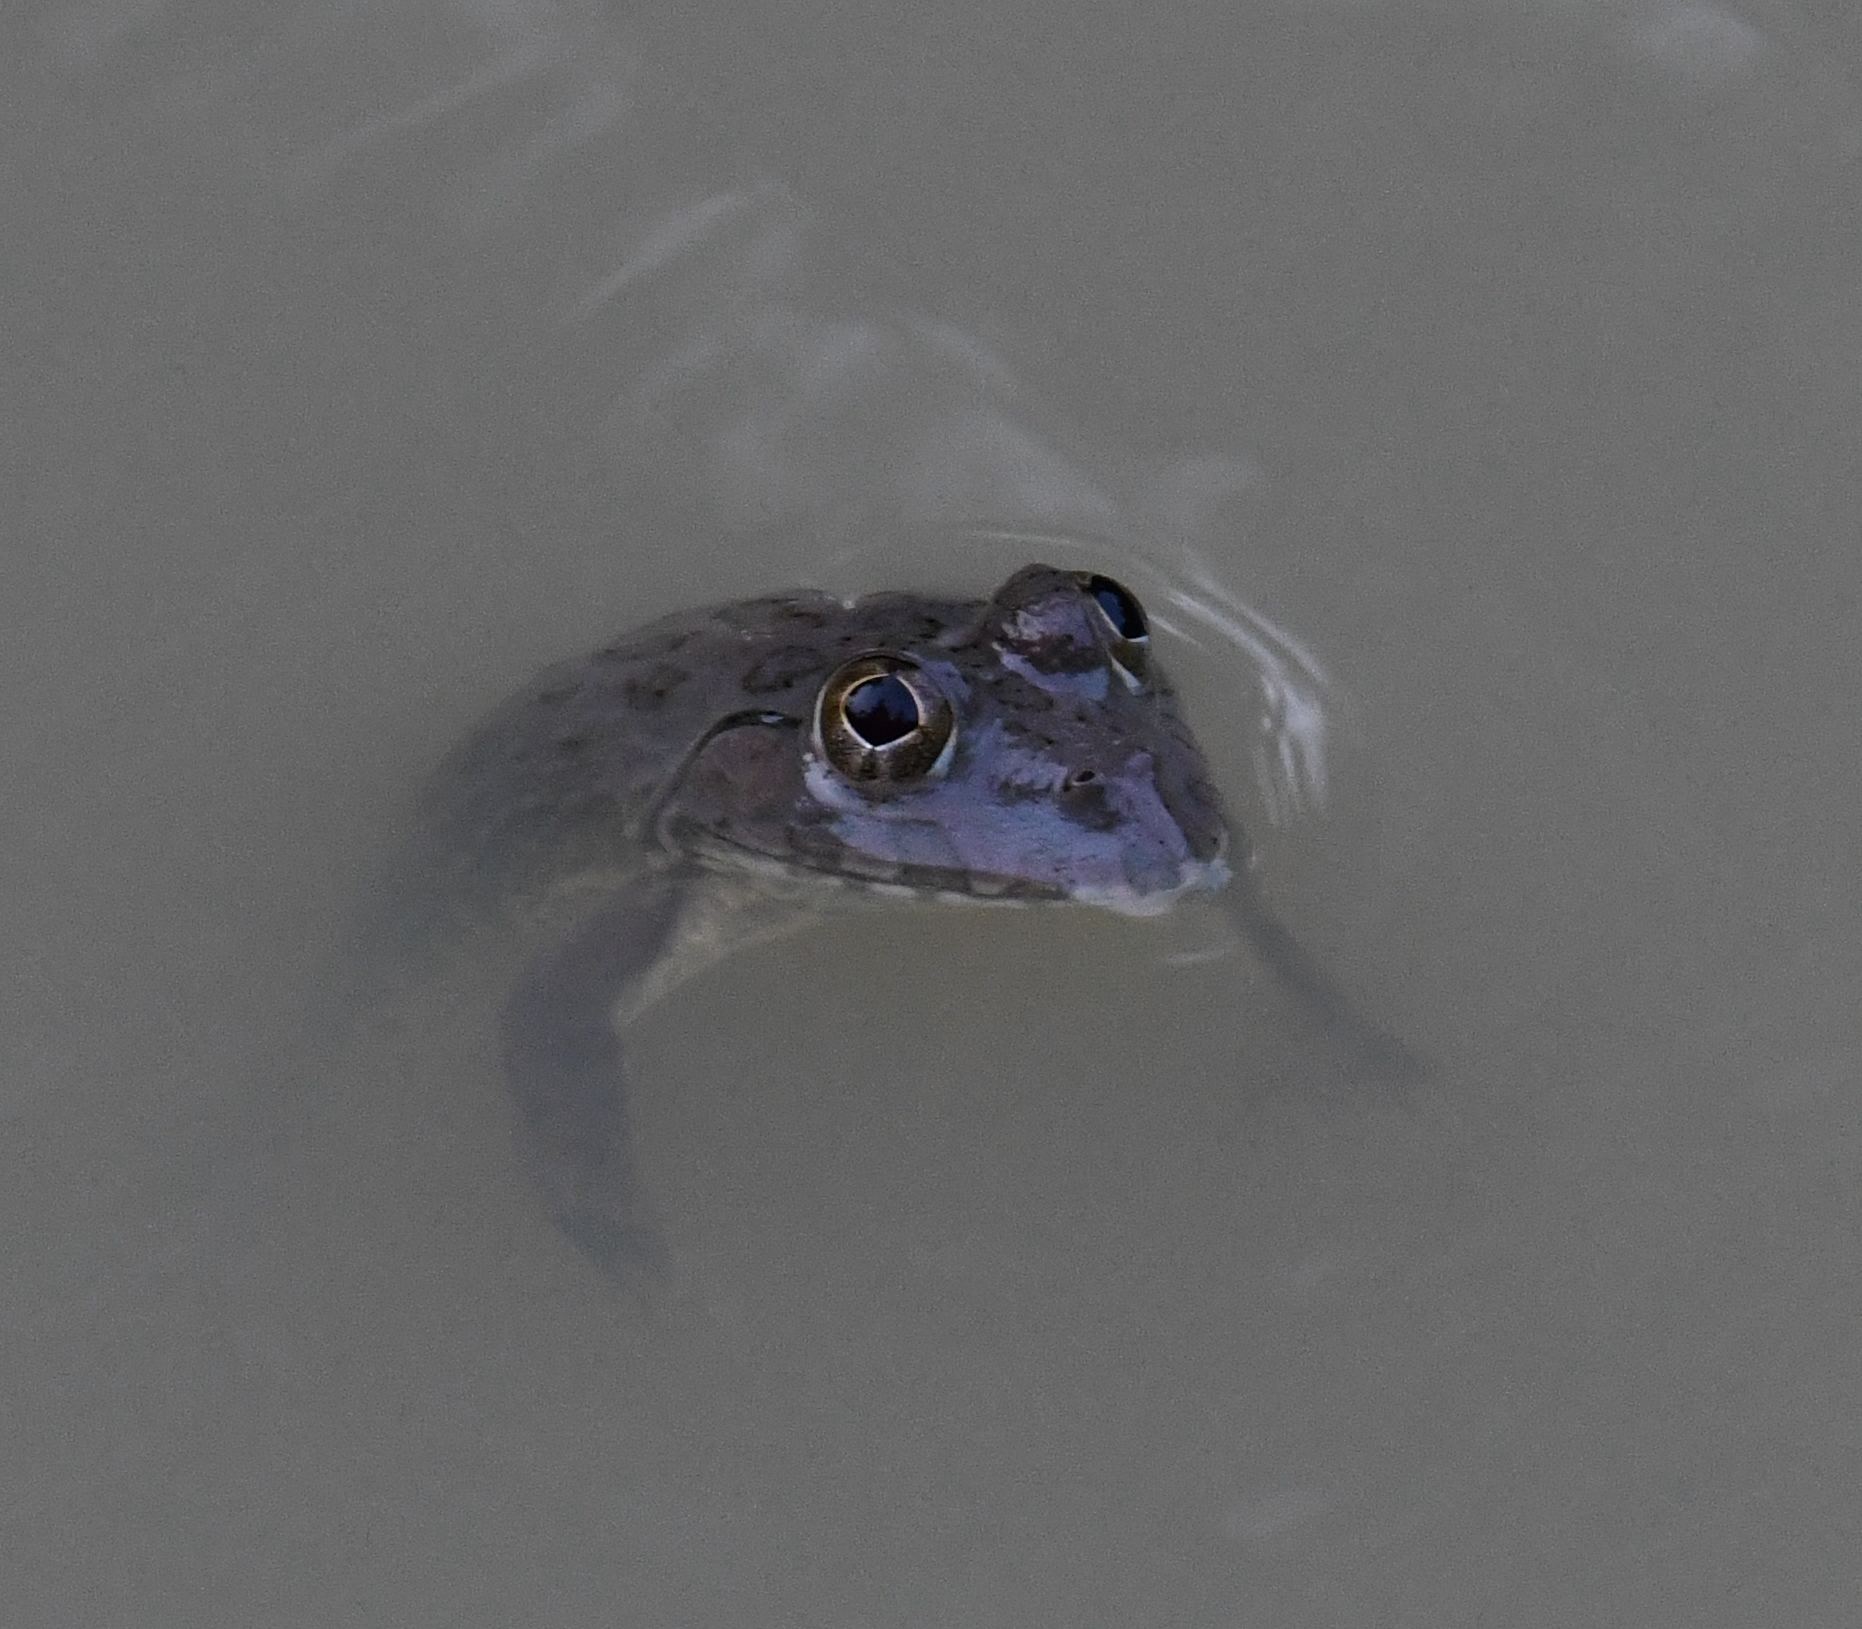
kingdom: Animalia
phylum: Chordata
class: Amphibia
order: Anura
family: Dicroglossidae
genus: Hoplobatrachus
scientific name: Hoplobatrachus occipitalis
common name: Eastern groove-crowned bullfrog
